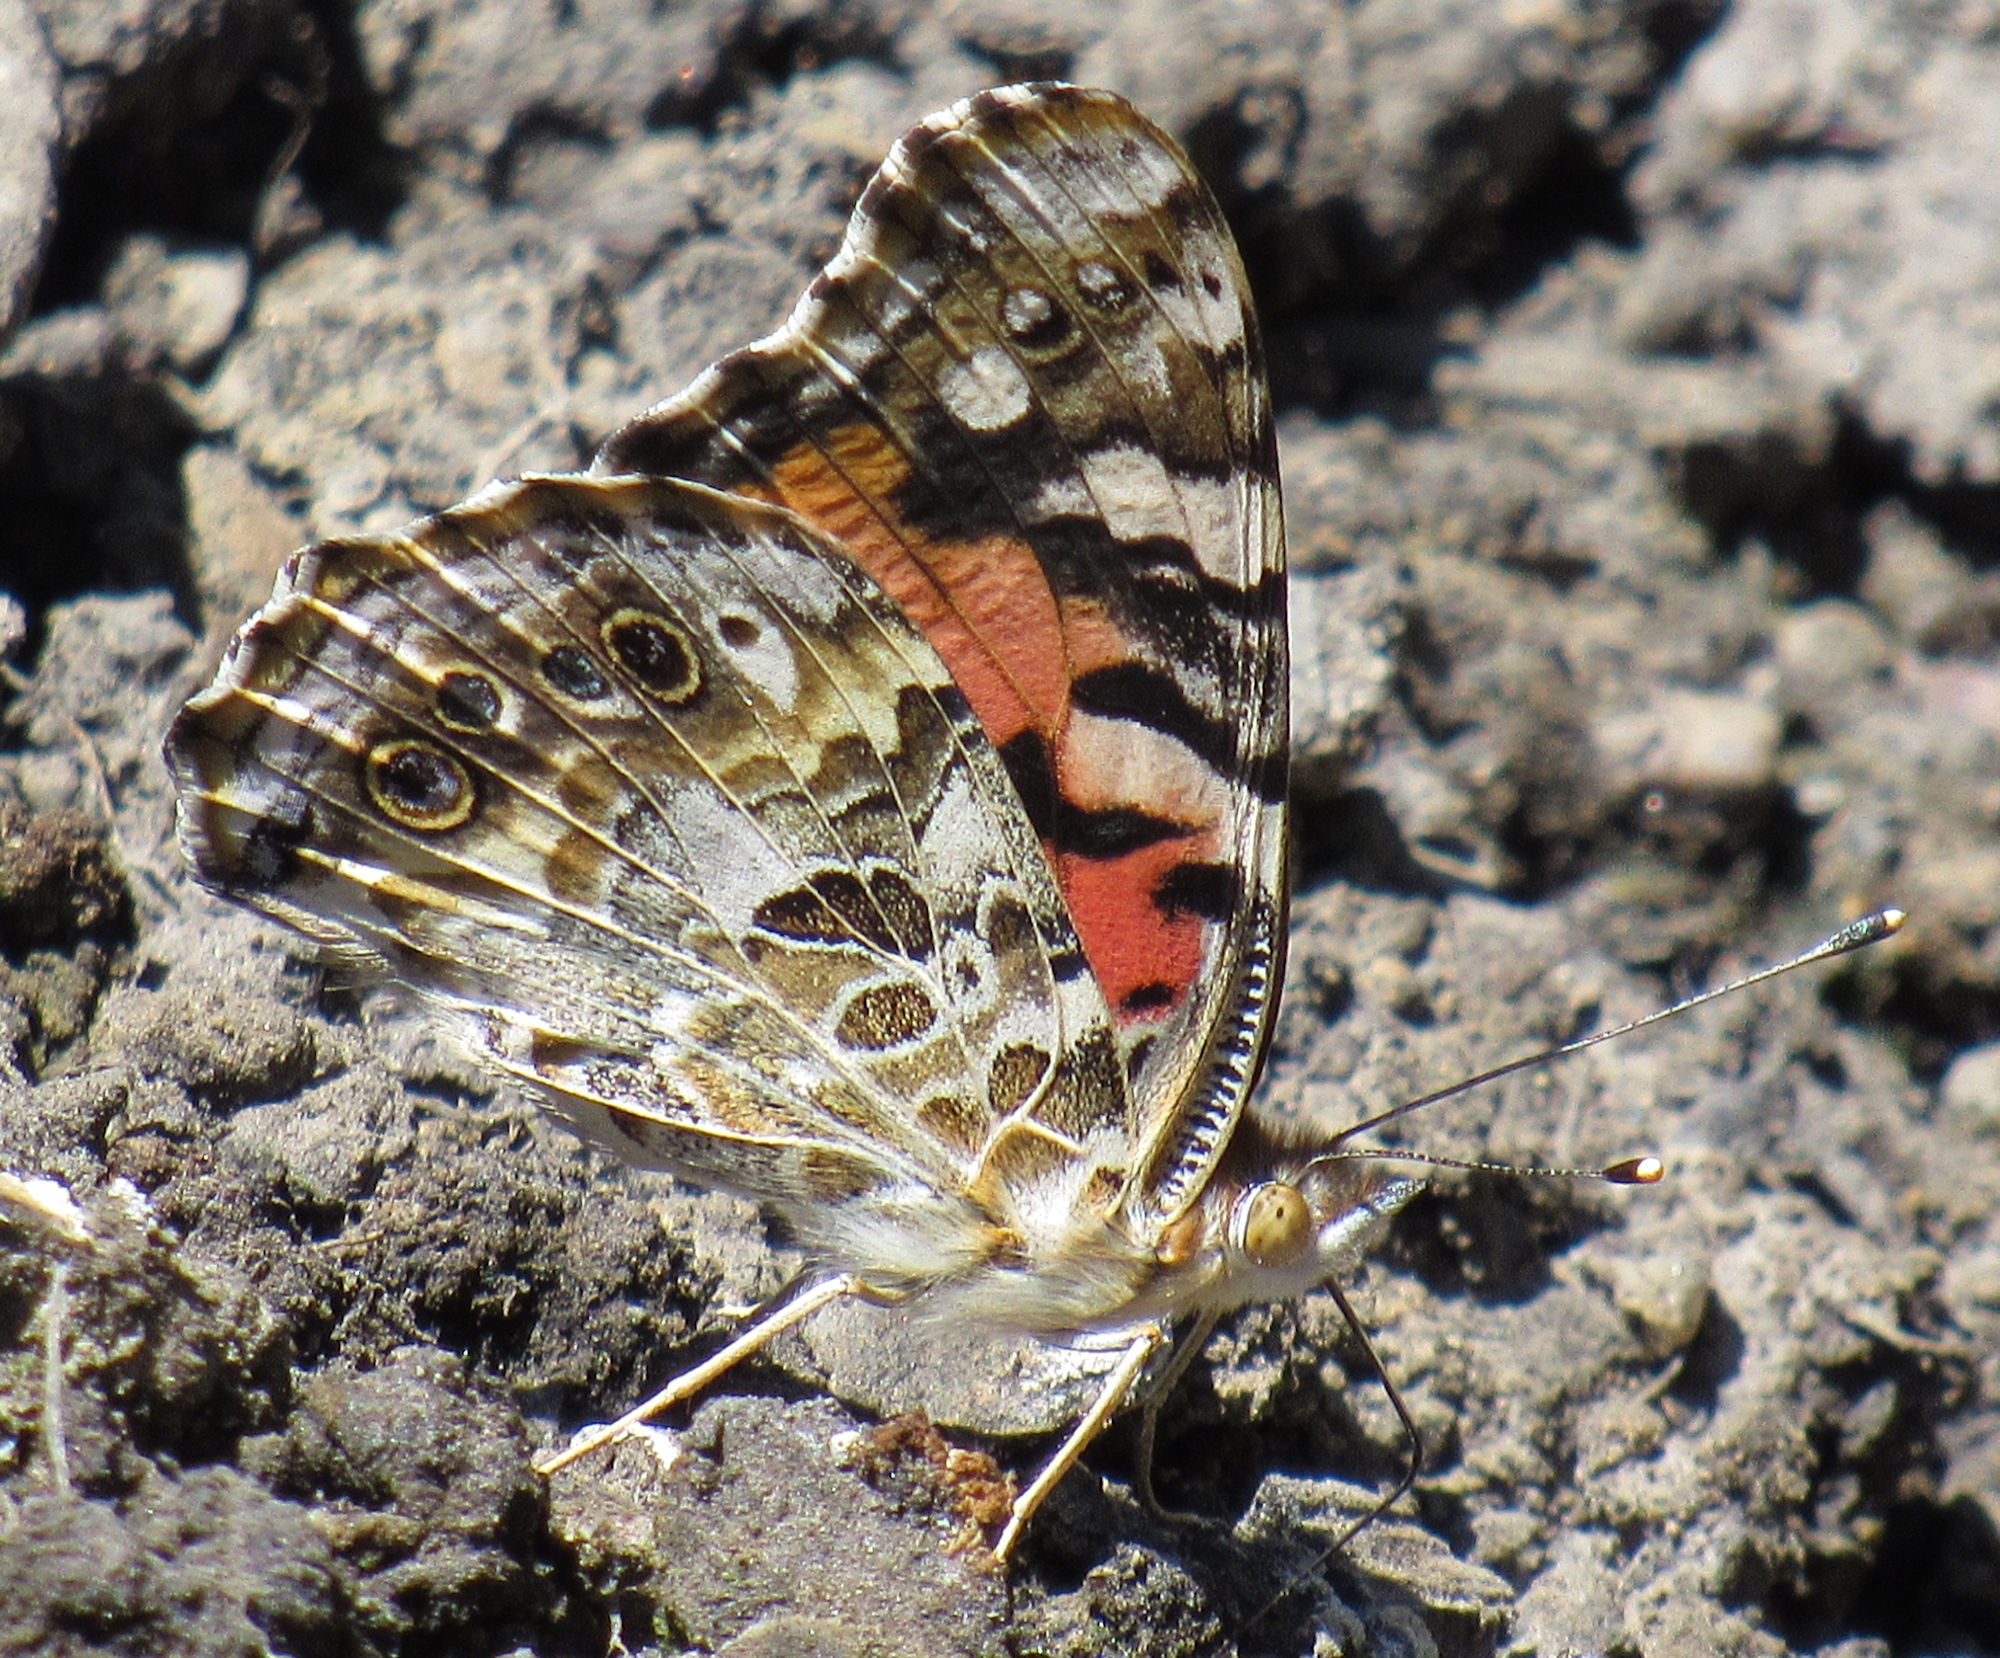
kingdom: Animalia
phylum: Arthropoda
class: Insecta
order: Lepidoptera
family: Nymphalidae
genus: Vanessa
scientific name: Vanessa cardui
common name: Painted lady
